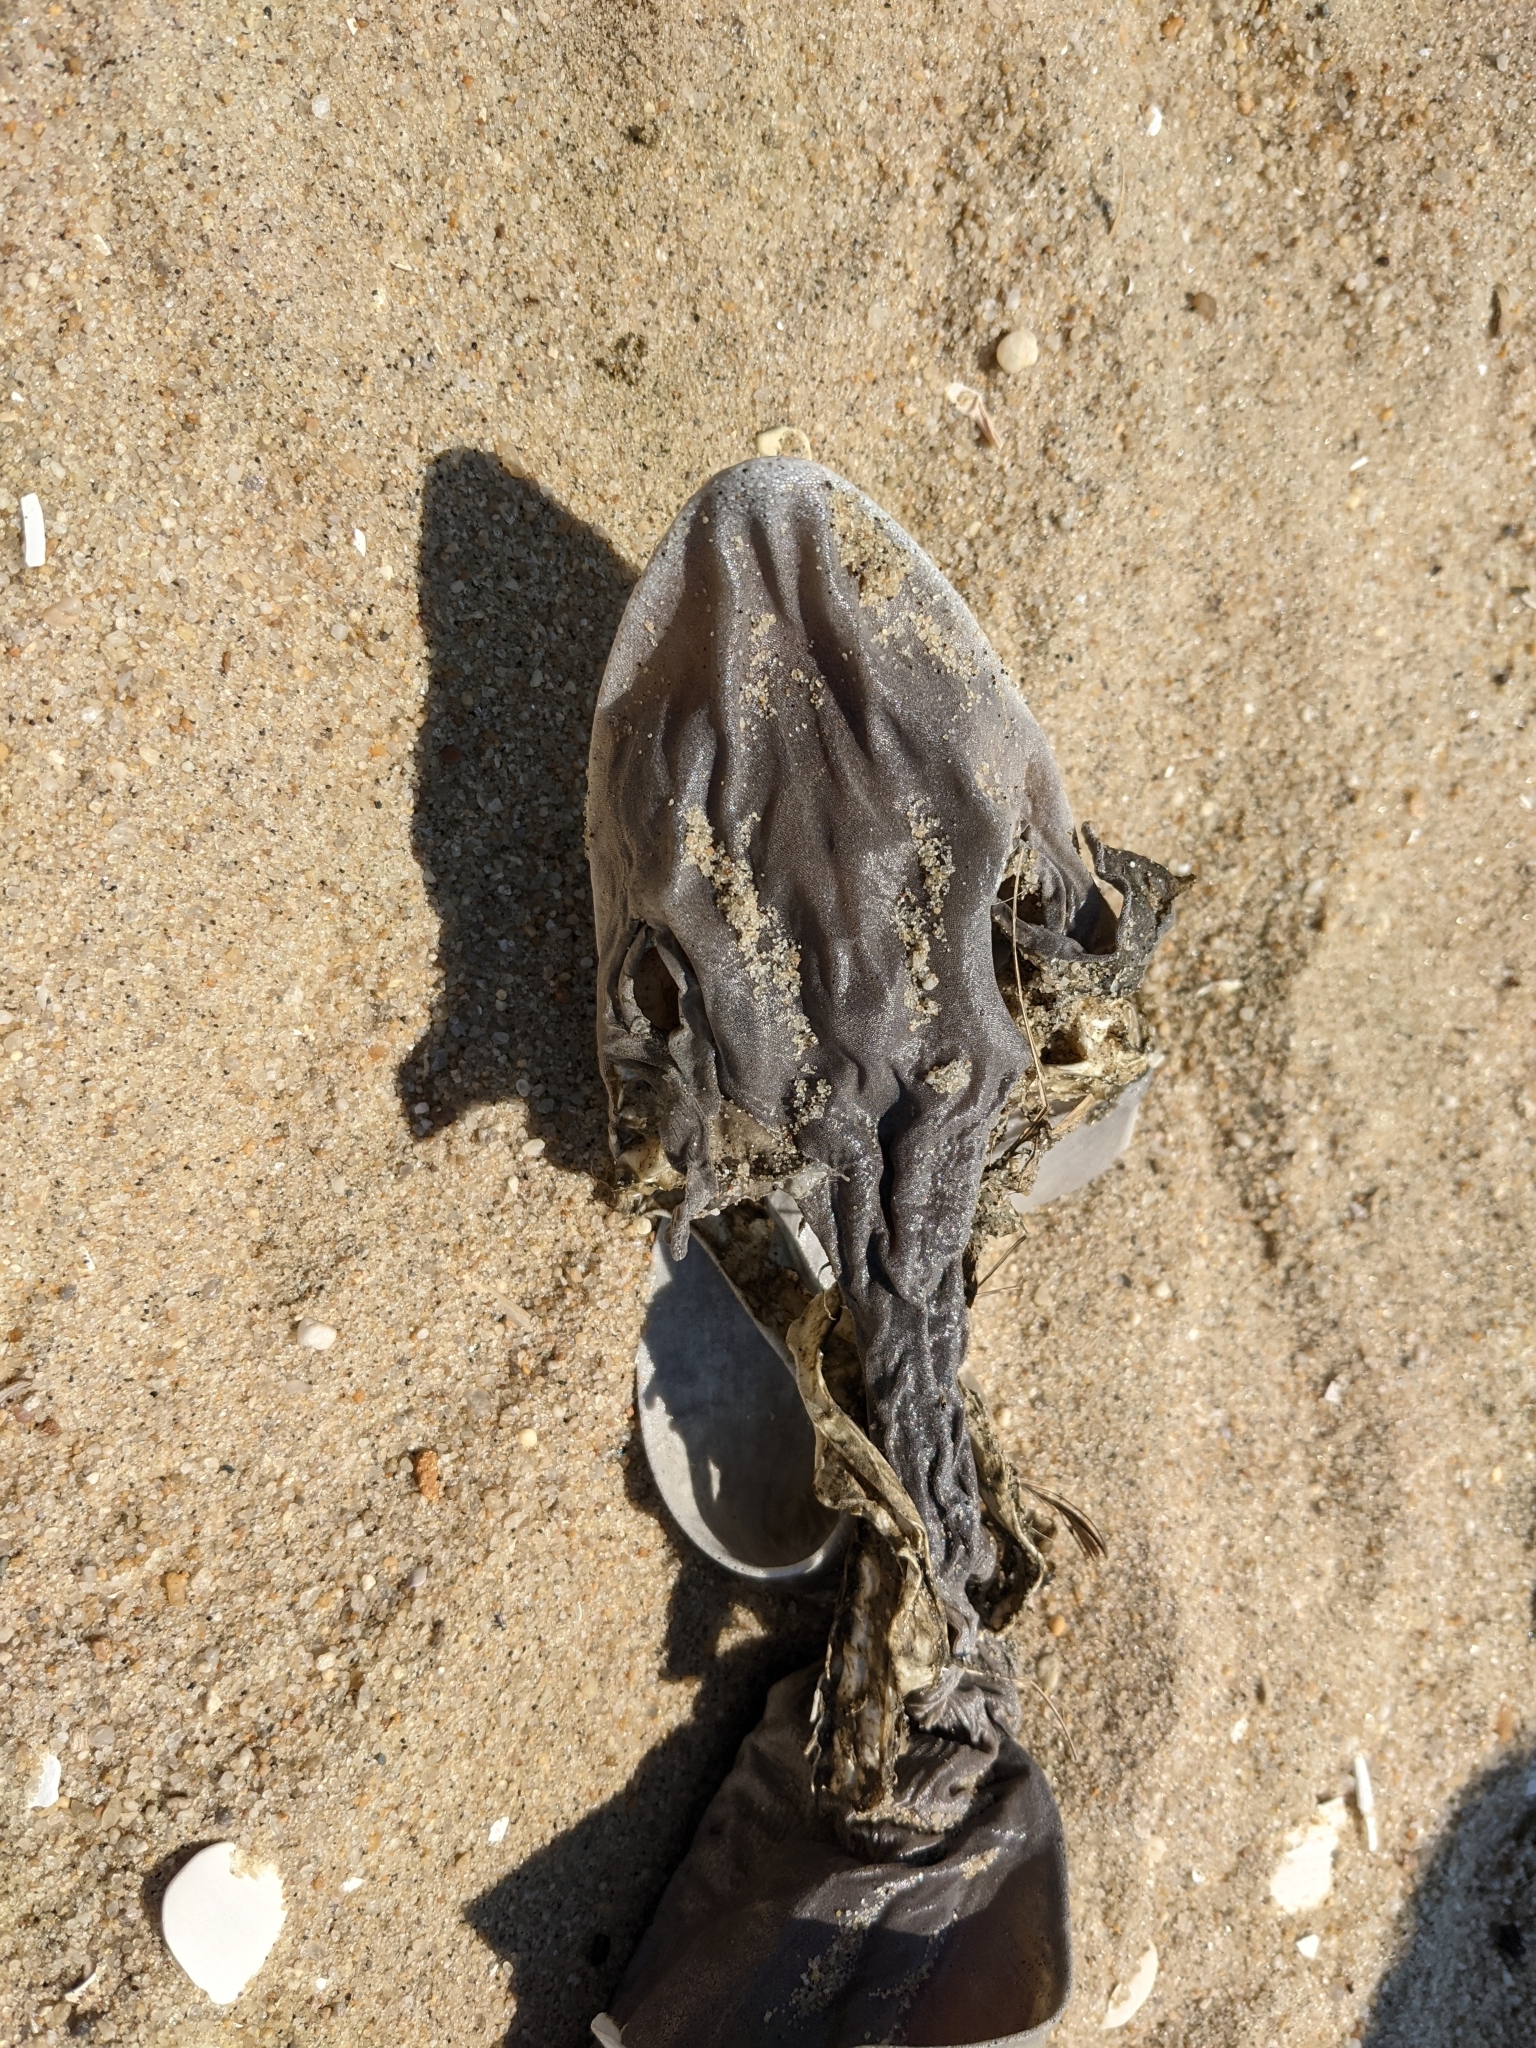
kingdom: Animalia
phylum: Chordata
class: Elasmobranchii
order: Carcharhiniformes
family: Triakidae
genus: Mustelus
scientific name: Mustelus canis
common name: Smooth dogfish
